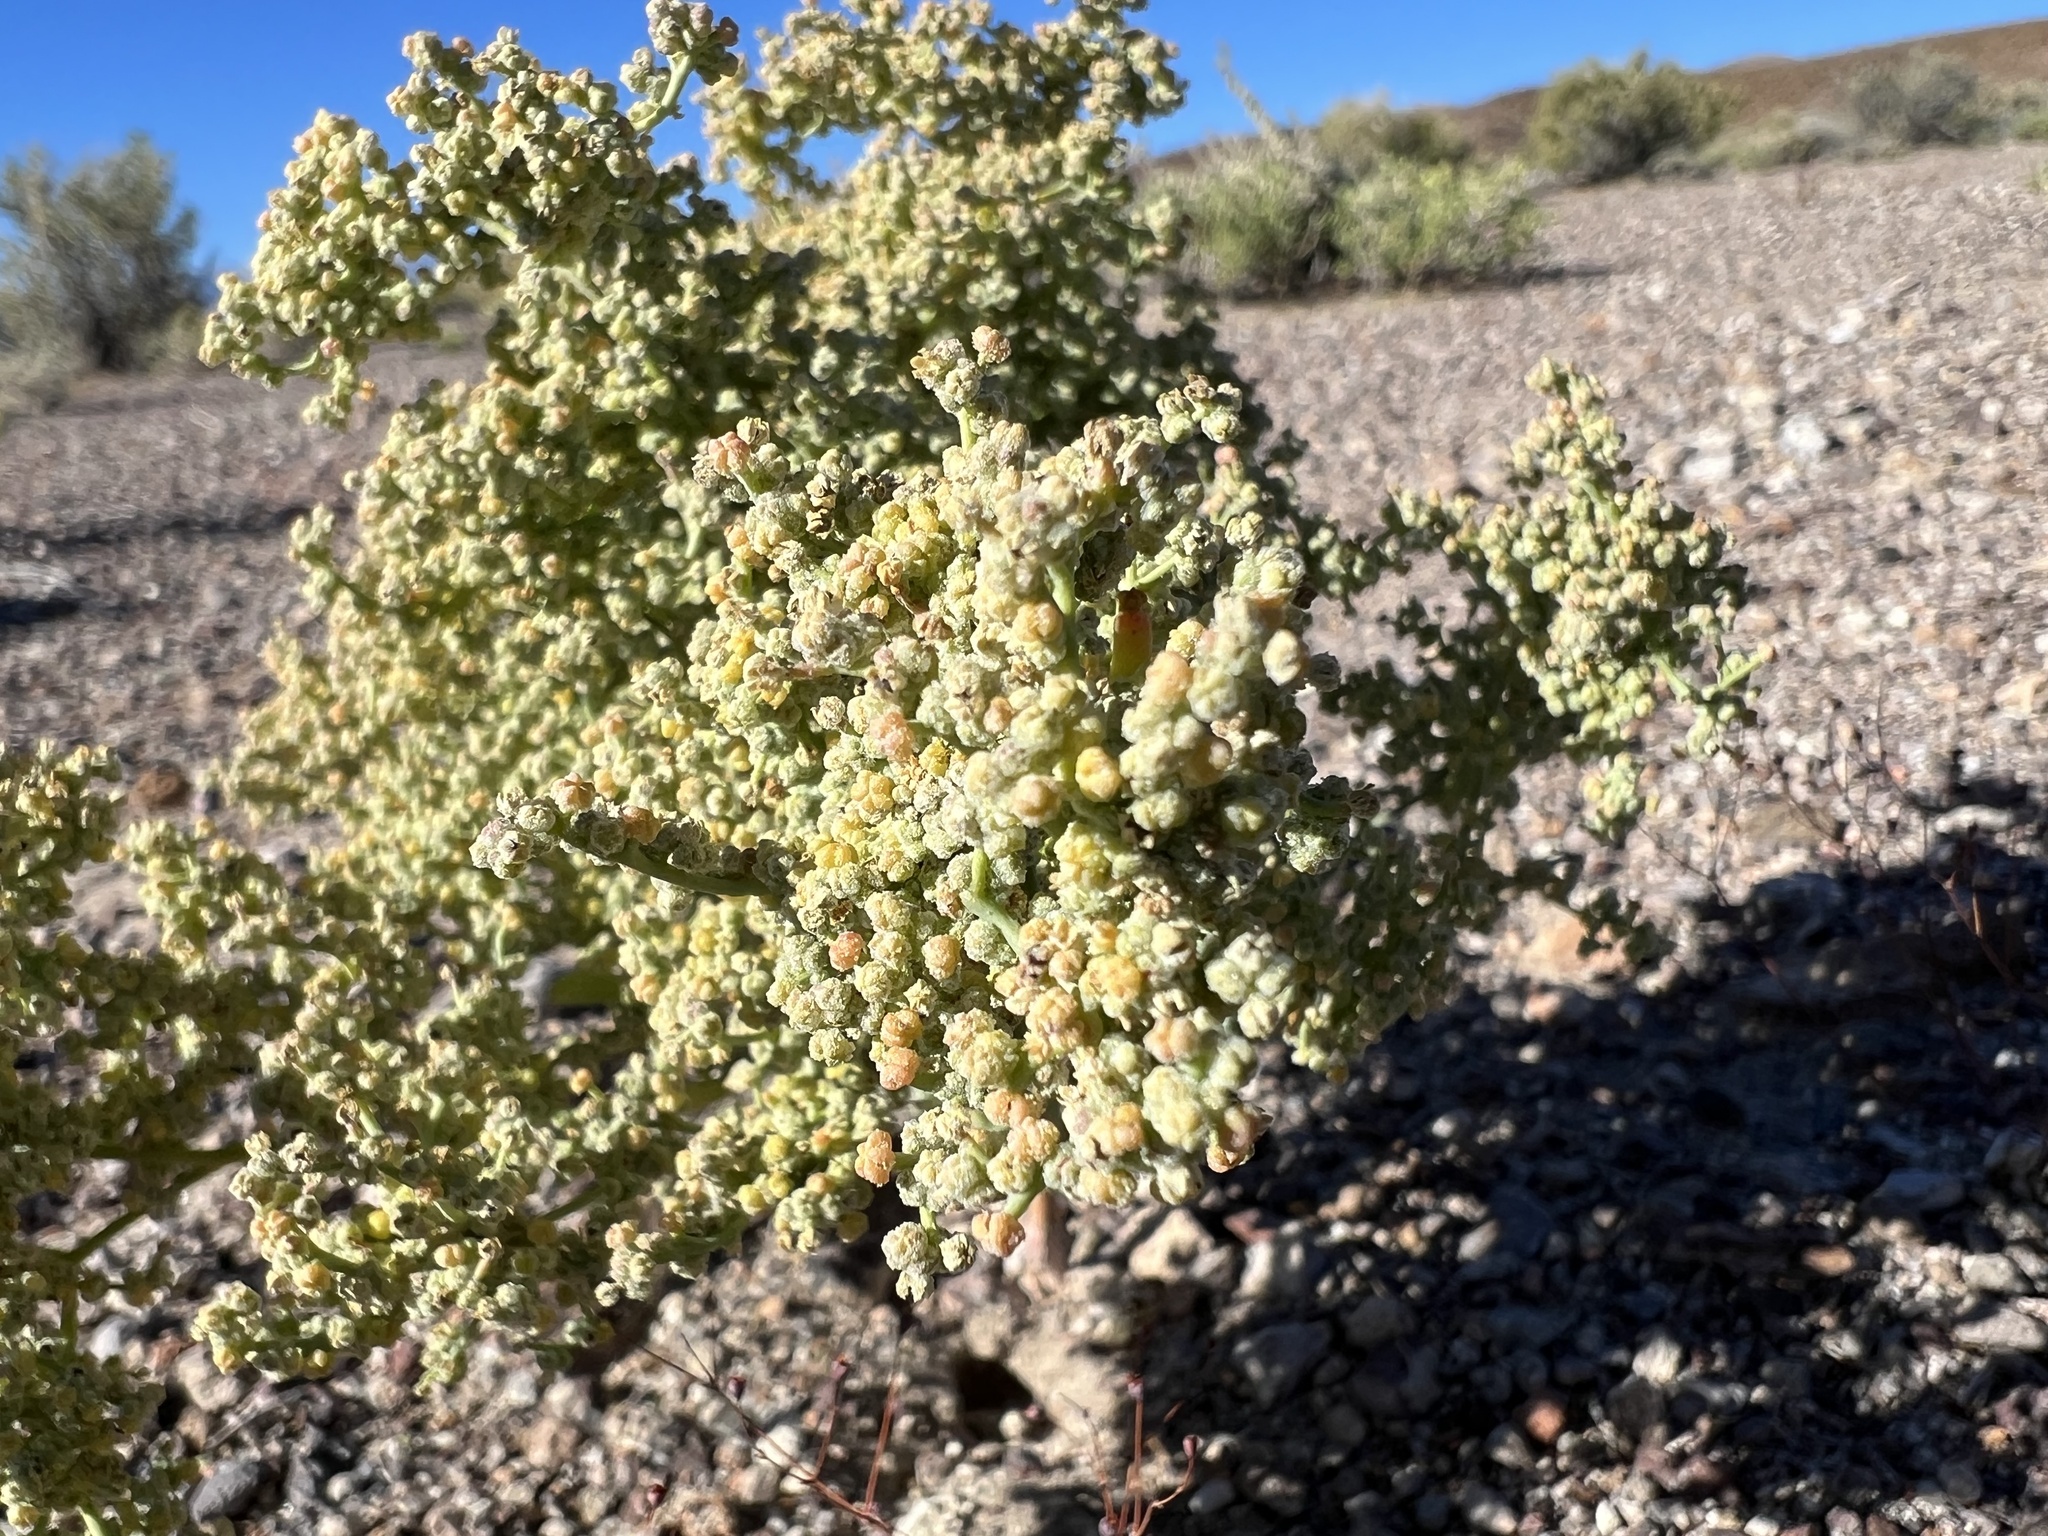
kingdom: Plantae
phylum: Tracheophyta
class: Magnoliopsida
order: Caryophyllales
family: Amaranthaceae
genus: Chenopodium
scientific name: Chenopodium nevadense
